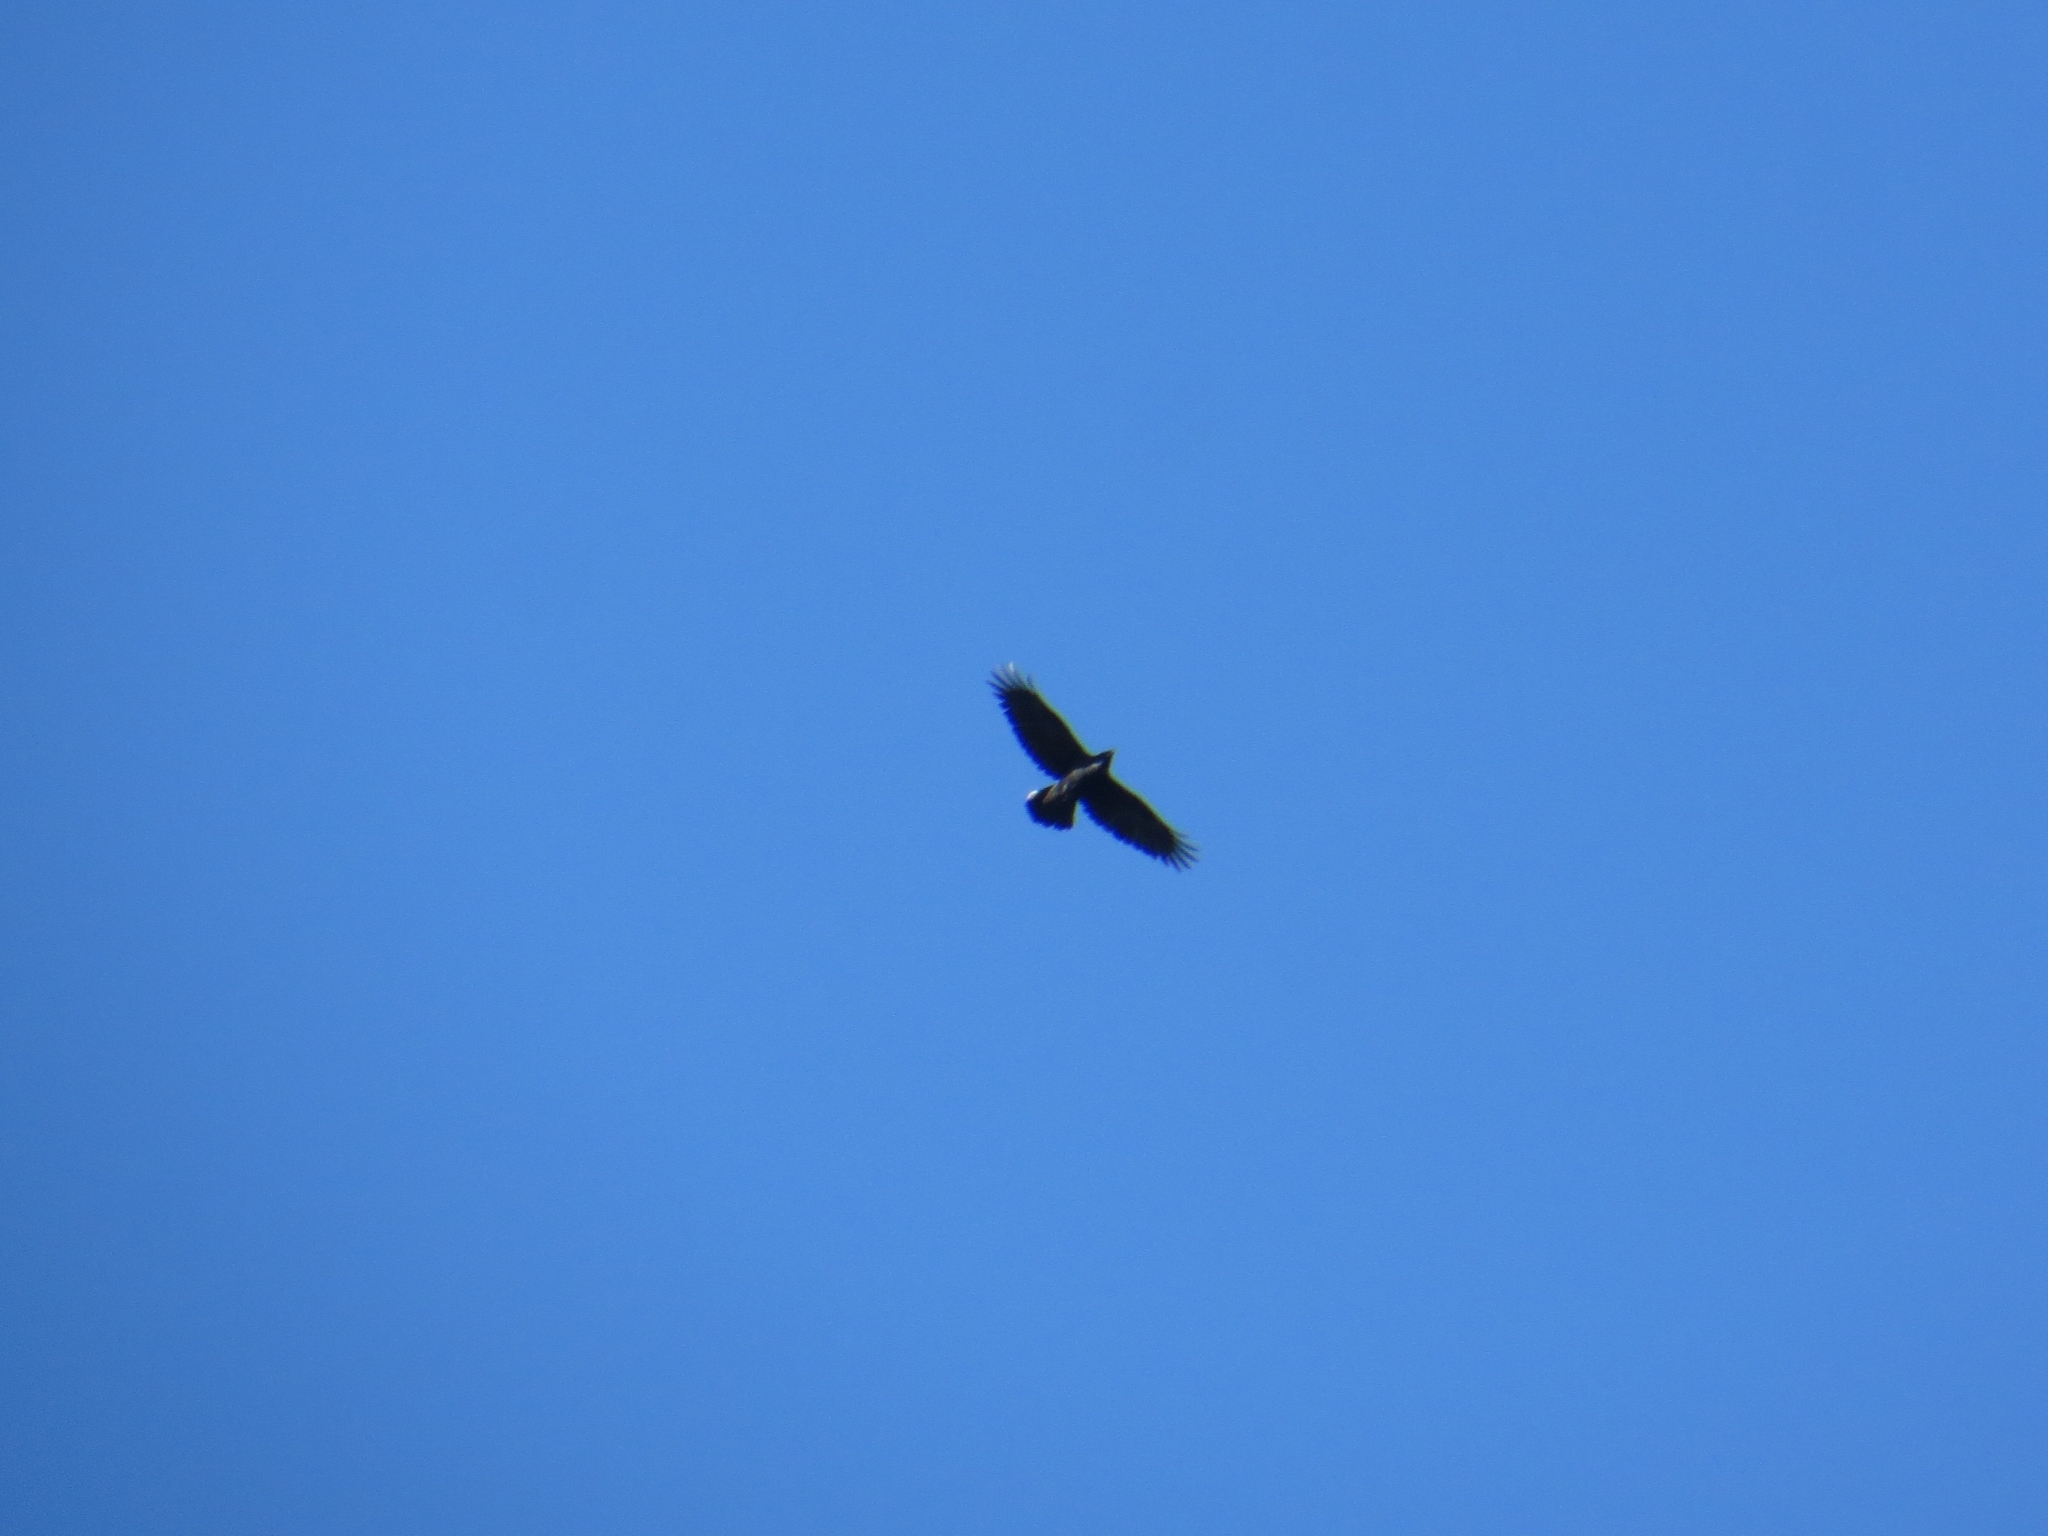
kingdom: Animalia
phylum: Chordata
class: Aves
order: Passeriformes
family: Corvidae
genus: Corvus
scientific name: Corvus corax
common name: Common raven
